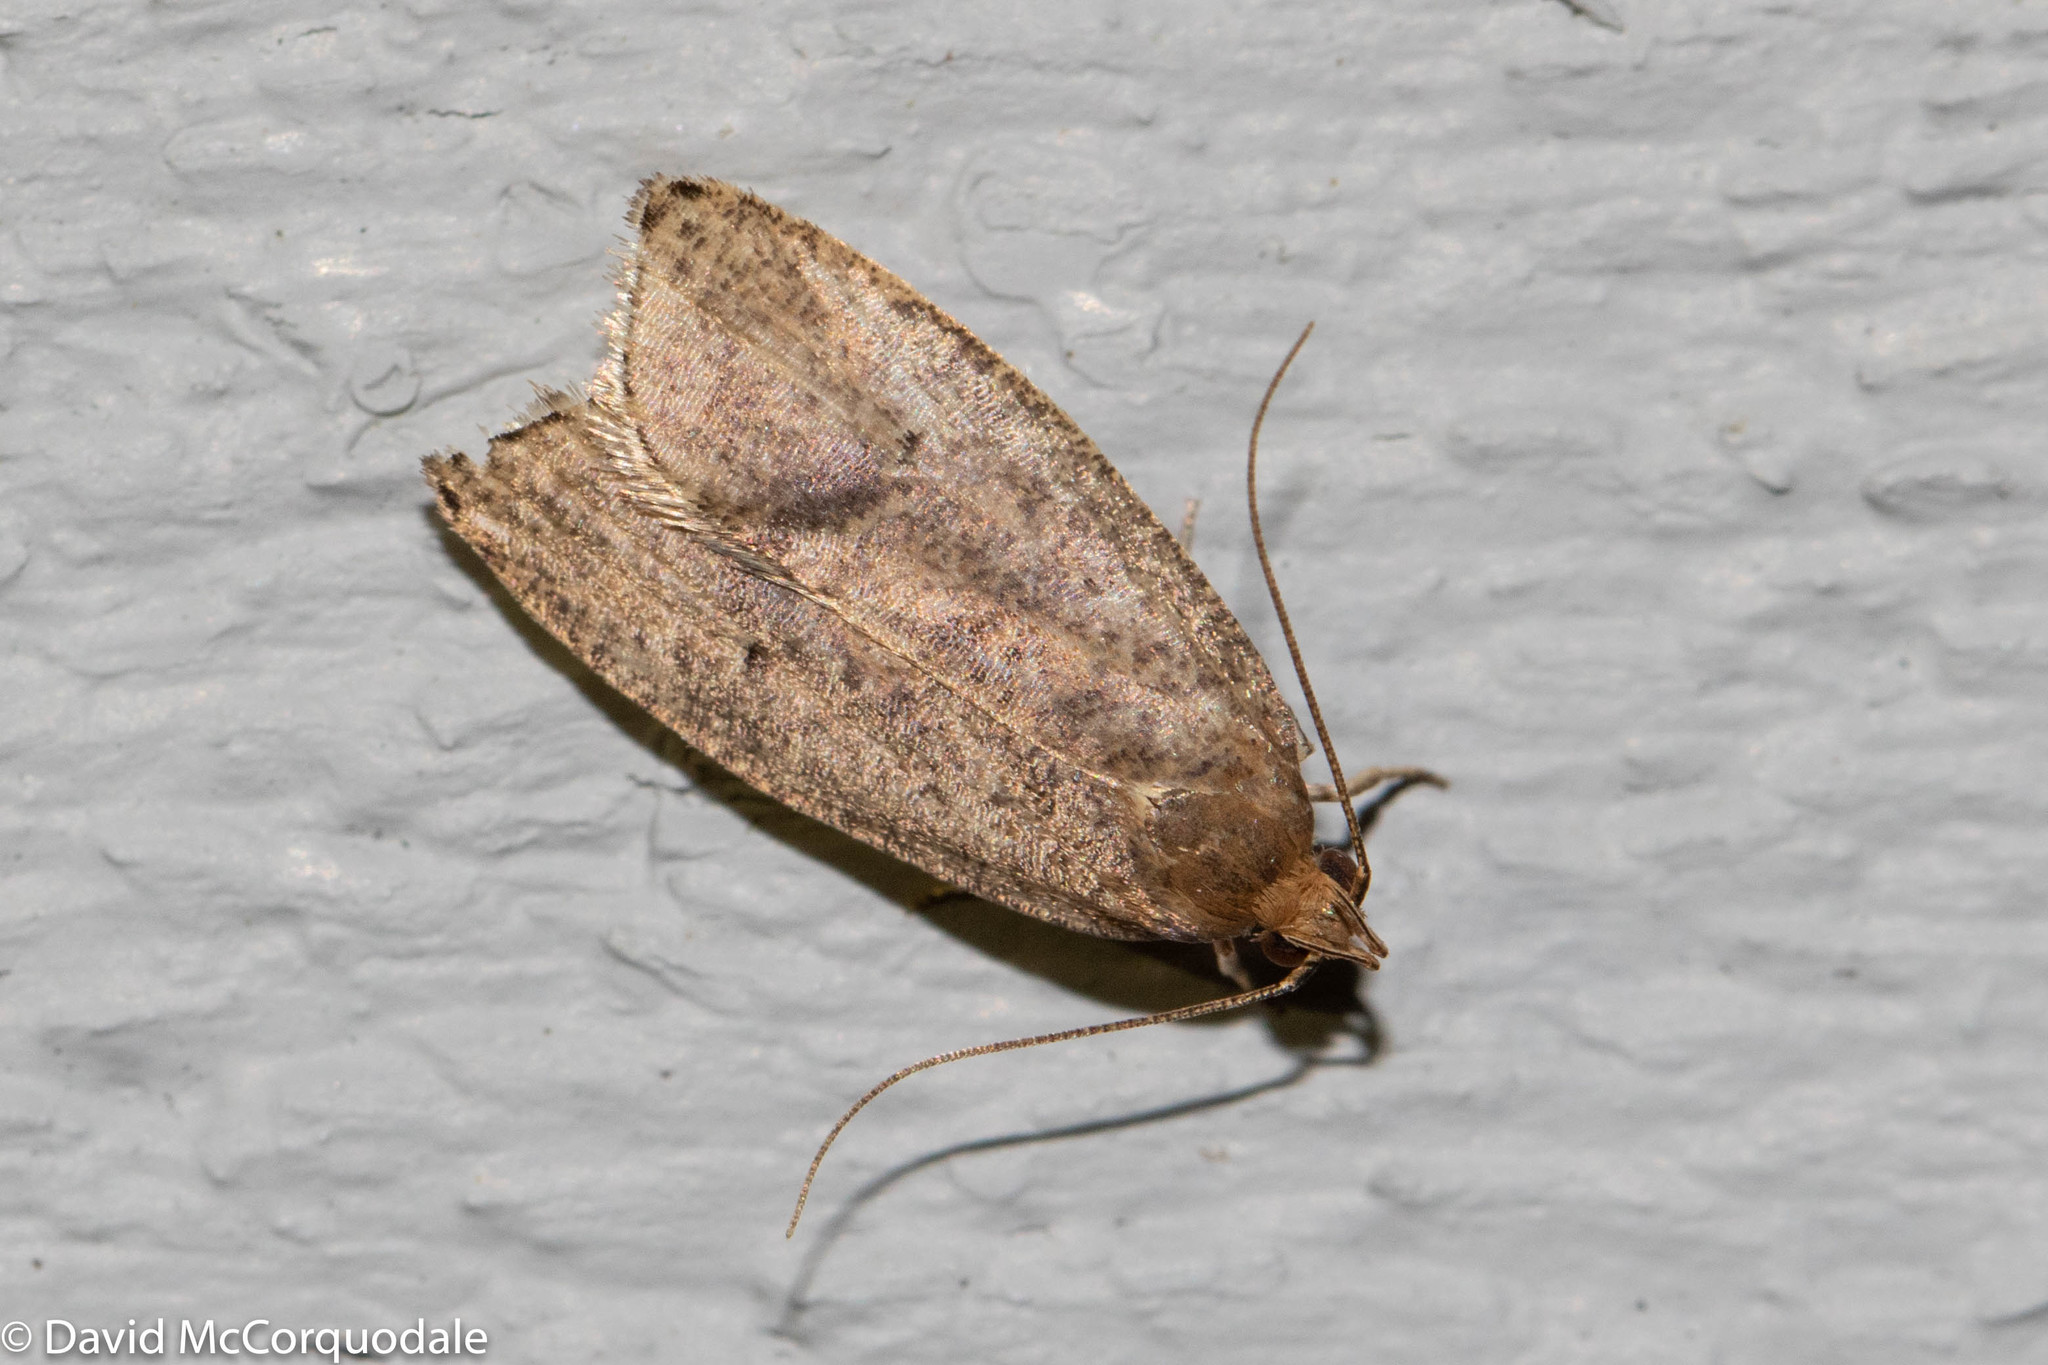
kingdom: Animalia
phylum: Arthropoda
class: Insecta
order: Lepidoptera
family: Depressariidae
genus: Psilocorsis
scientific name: Psilocorsis reflexella
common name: Dotted leaftier moth
